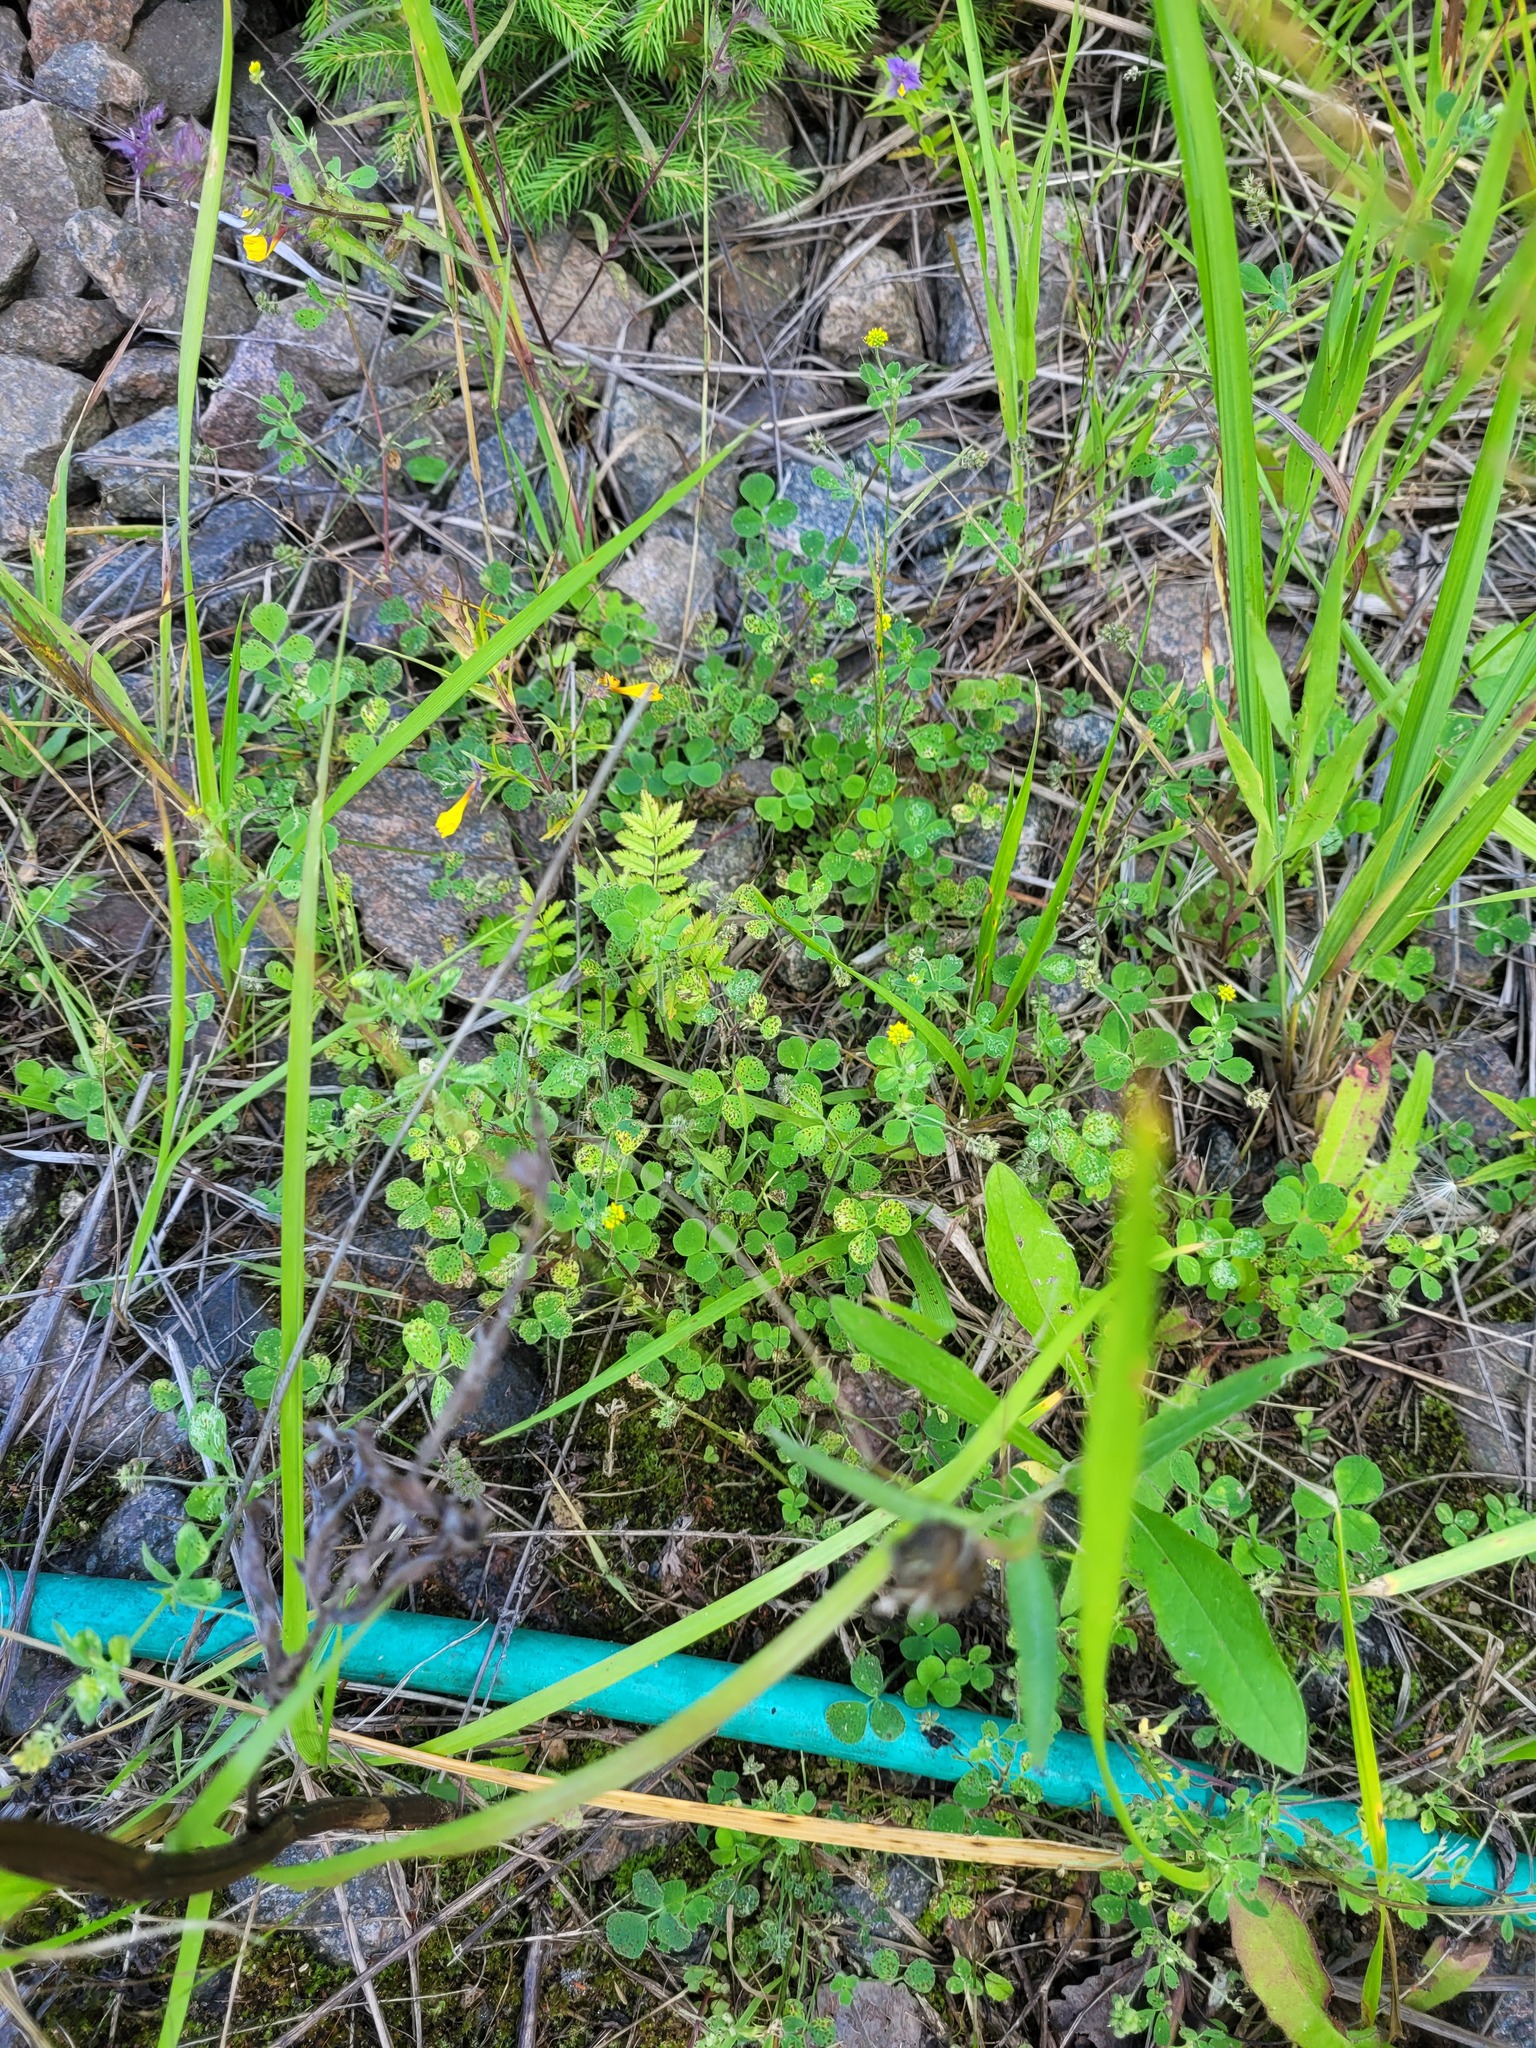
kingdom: Plantae
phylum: Tracheophyta
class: Magnoliopsida
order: Fabales
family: Fabaceae
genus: Medicago
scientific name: Medicago lupulina
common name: Black medick
